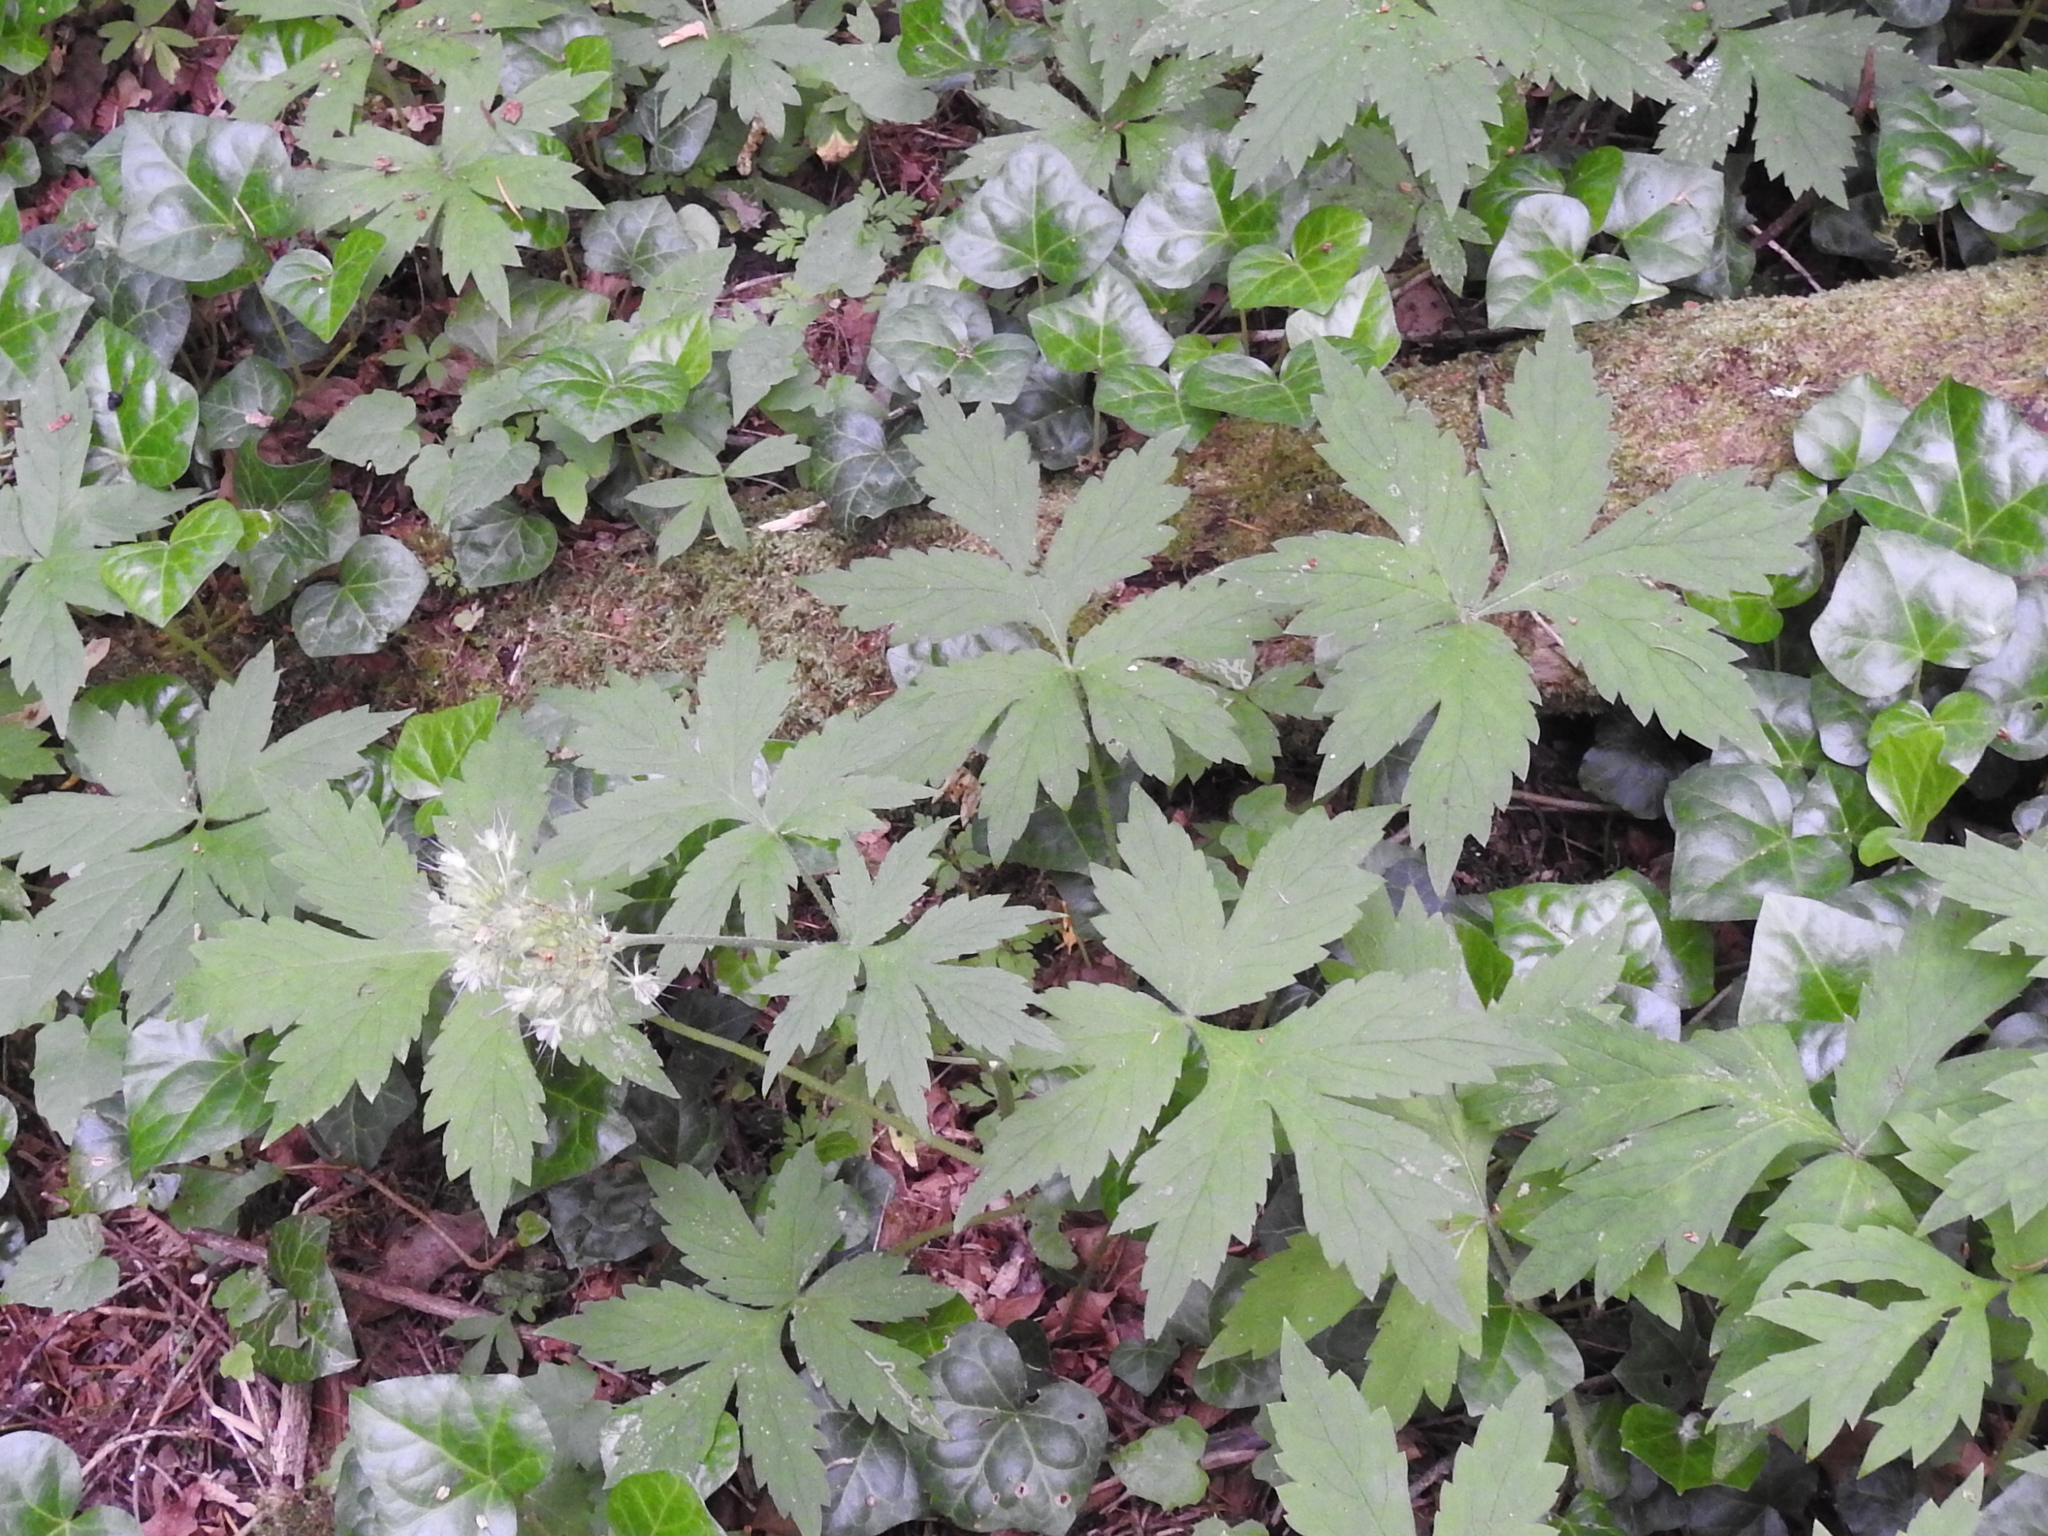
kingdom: Plantae
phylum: Tracheophyta
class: Magnoliopsida
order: Boraginales
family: Hydrophyllaceae
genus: Hydrophyllum
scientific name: Hydrophyllum tenuipes
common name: Pacific waterleaf
